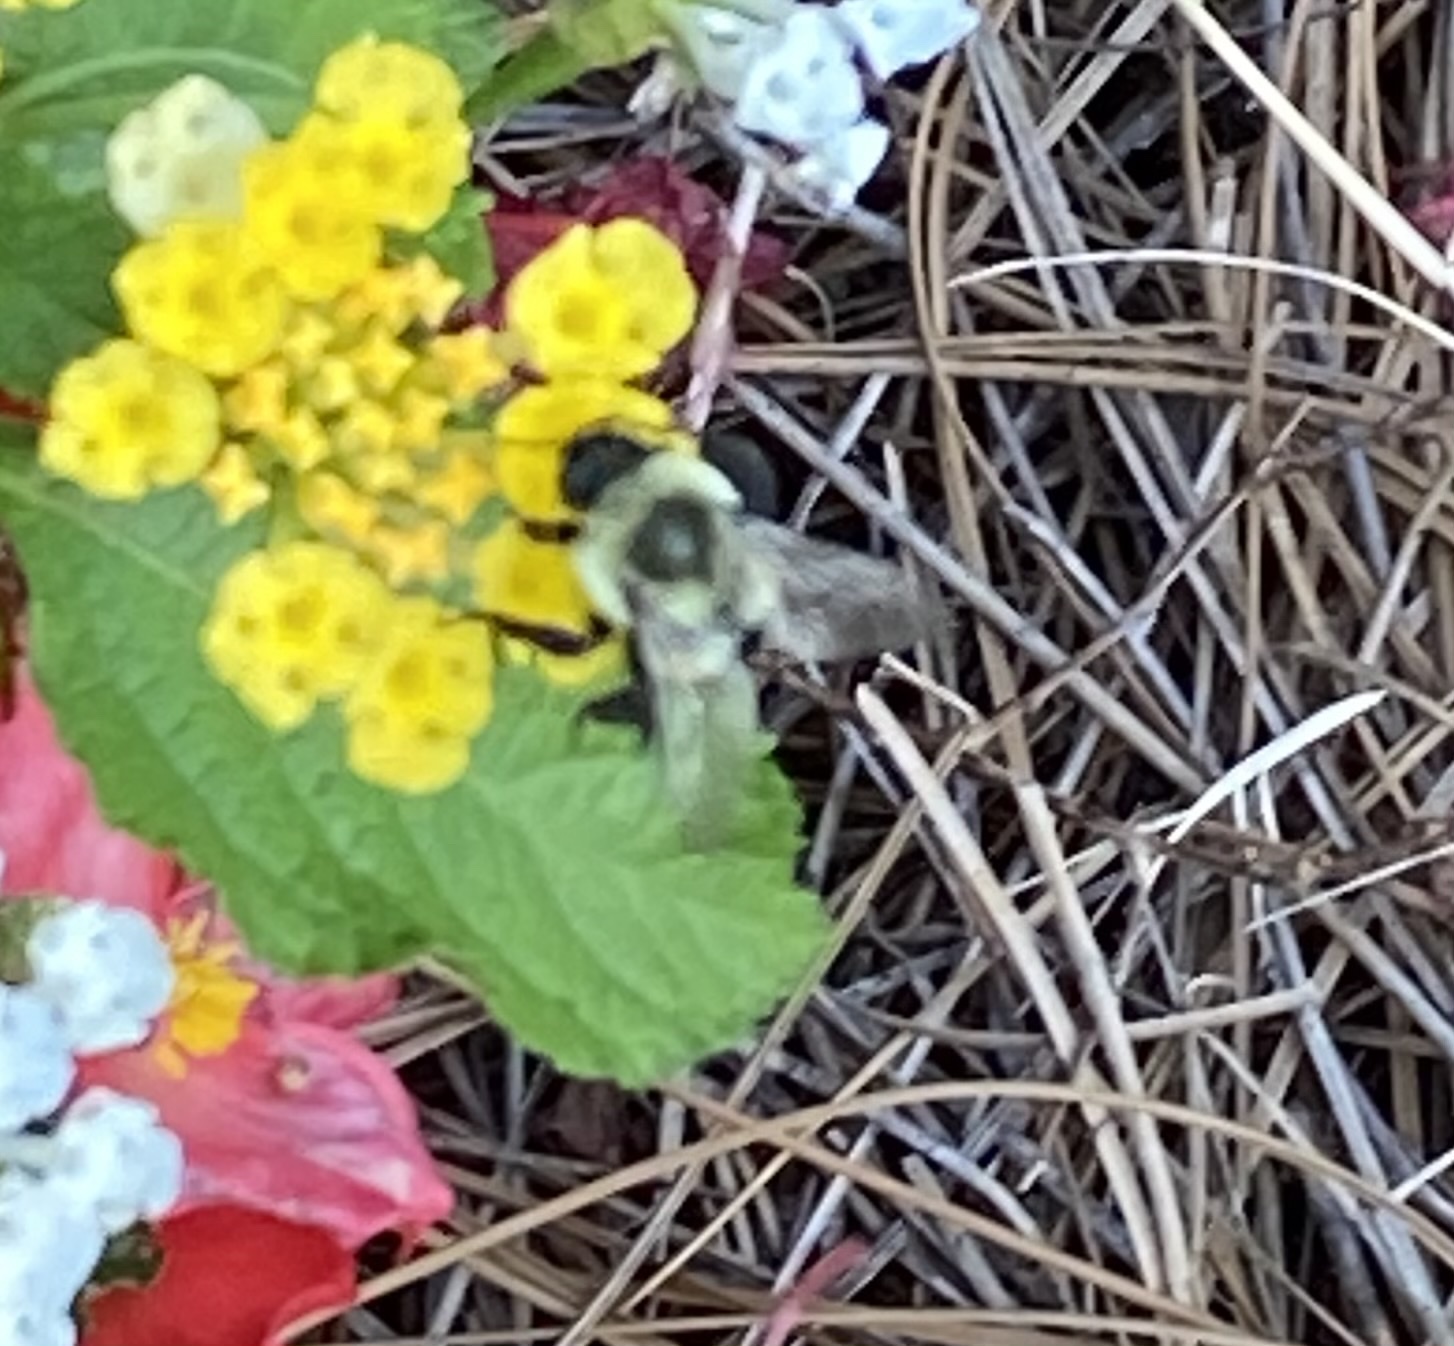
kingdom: Animalia
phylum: Arthropoda
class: Insecta
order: Hymenoptera
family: Apidae
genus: Bombus
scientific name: Bombus impatiens
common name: Common eastern bumble bee
